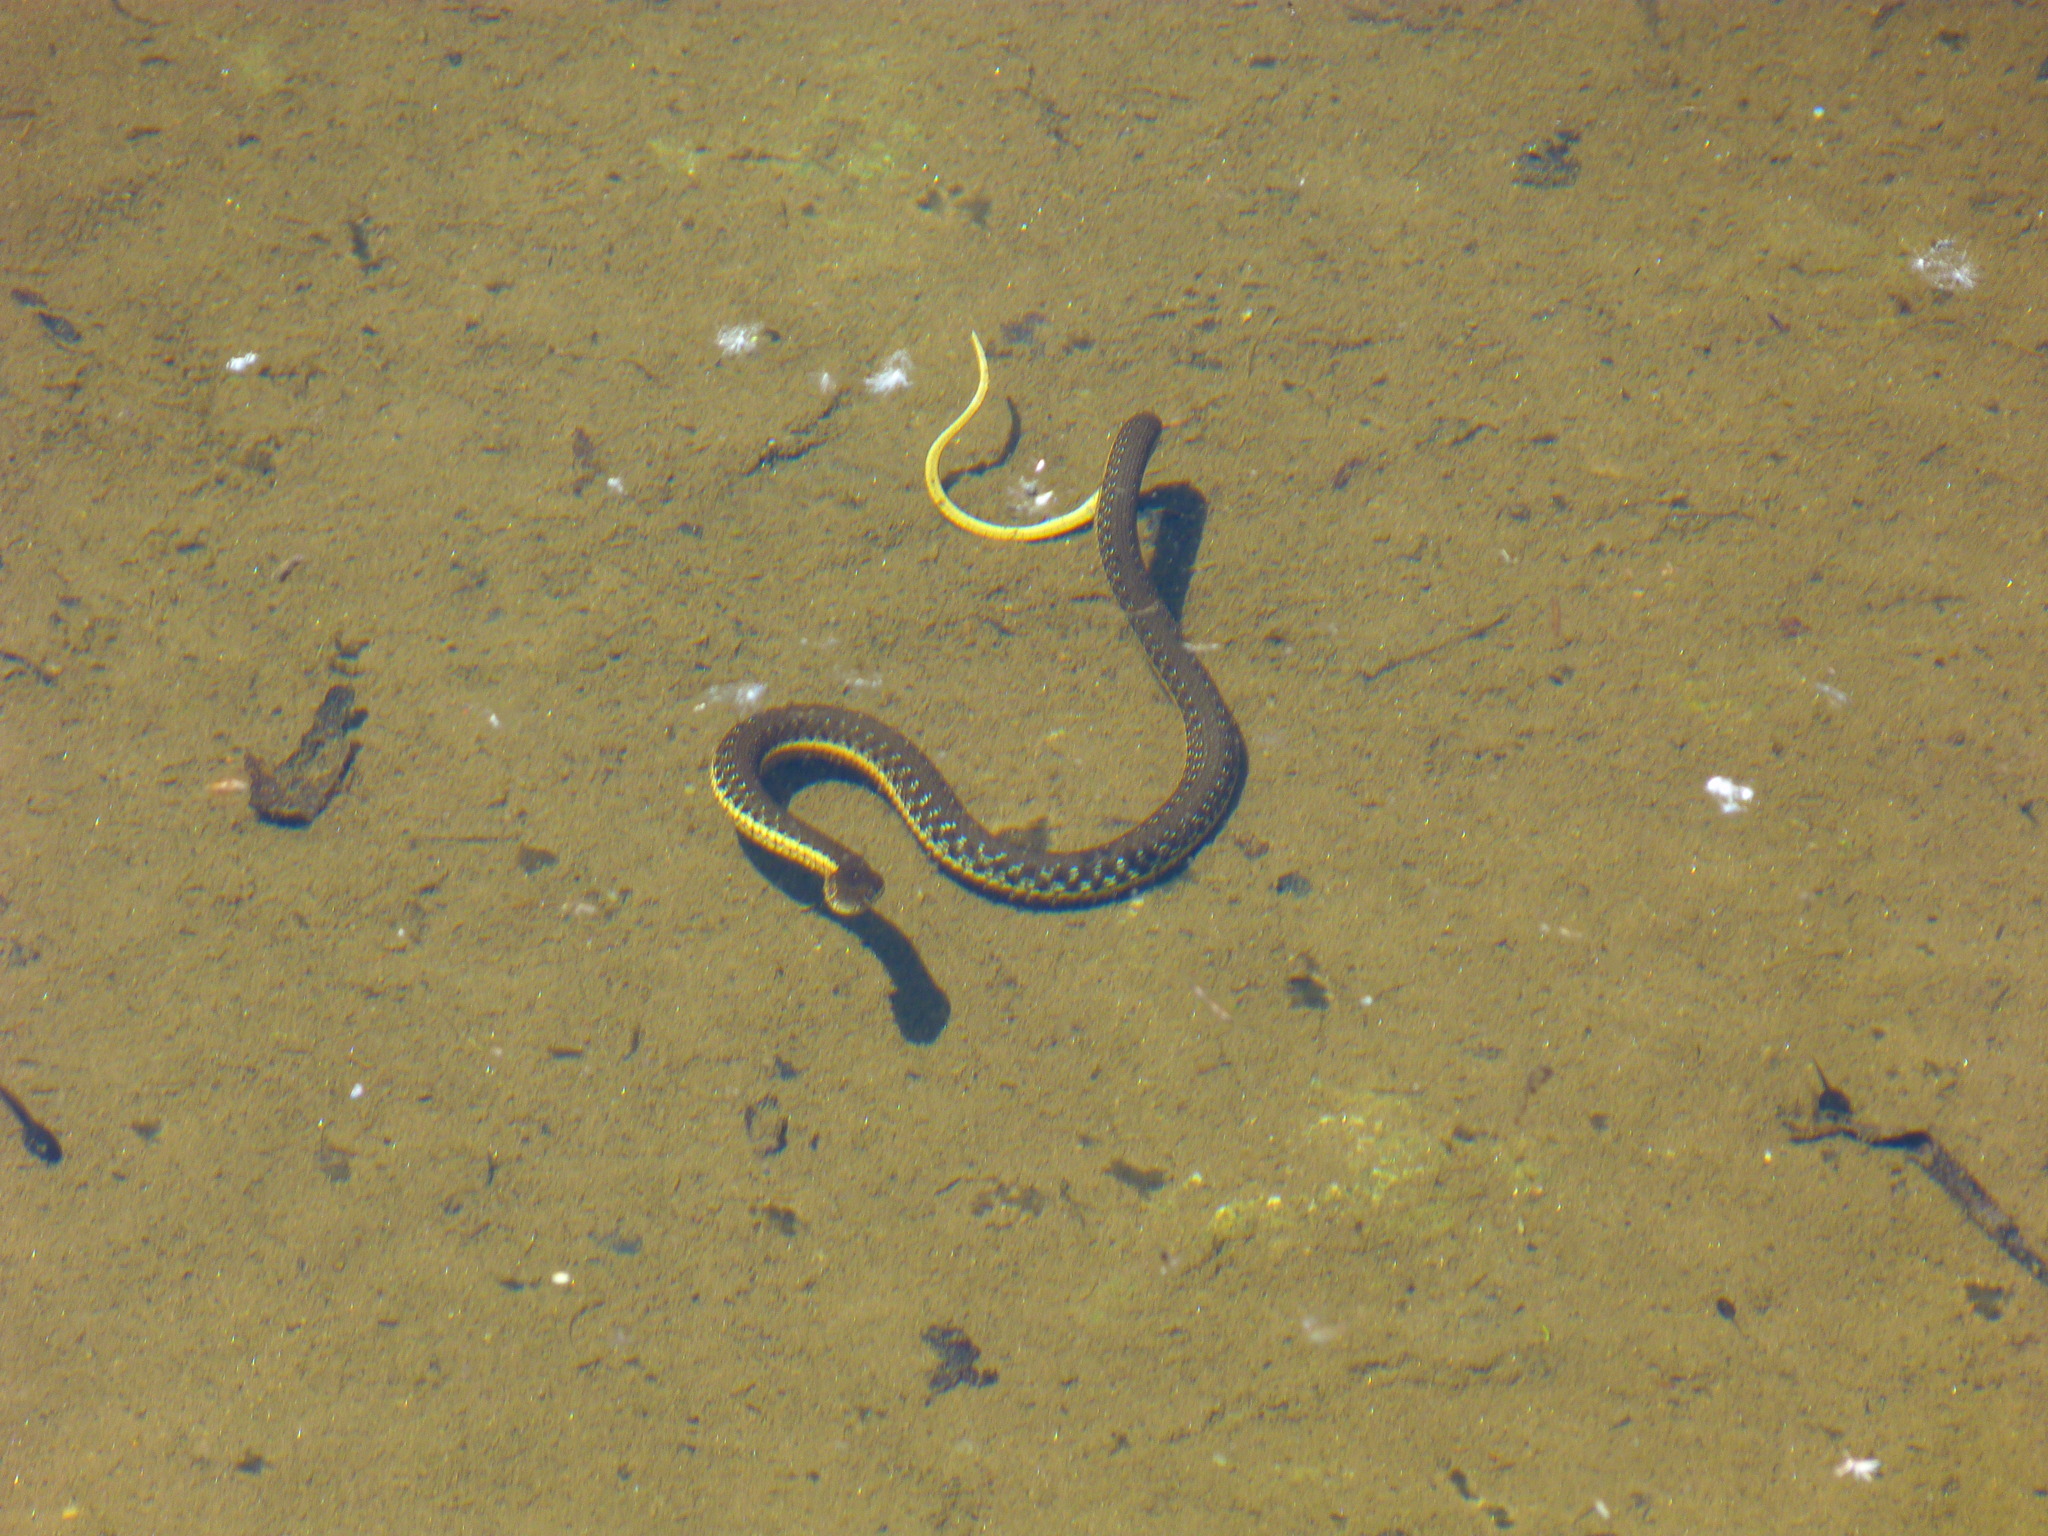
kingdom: Animalia
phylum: Chordata
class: Squamata
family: Colubridae
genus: Thamnophis
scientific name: Thamnophis hammondii
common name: Two-striped garter snake
